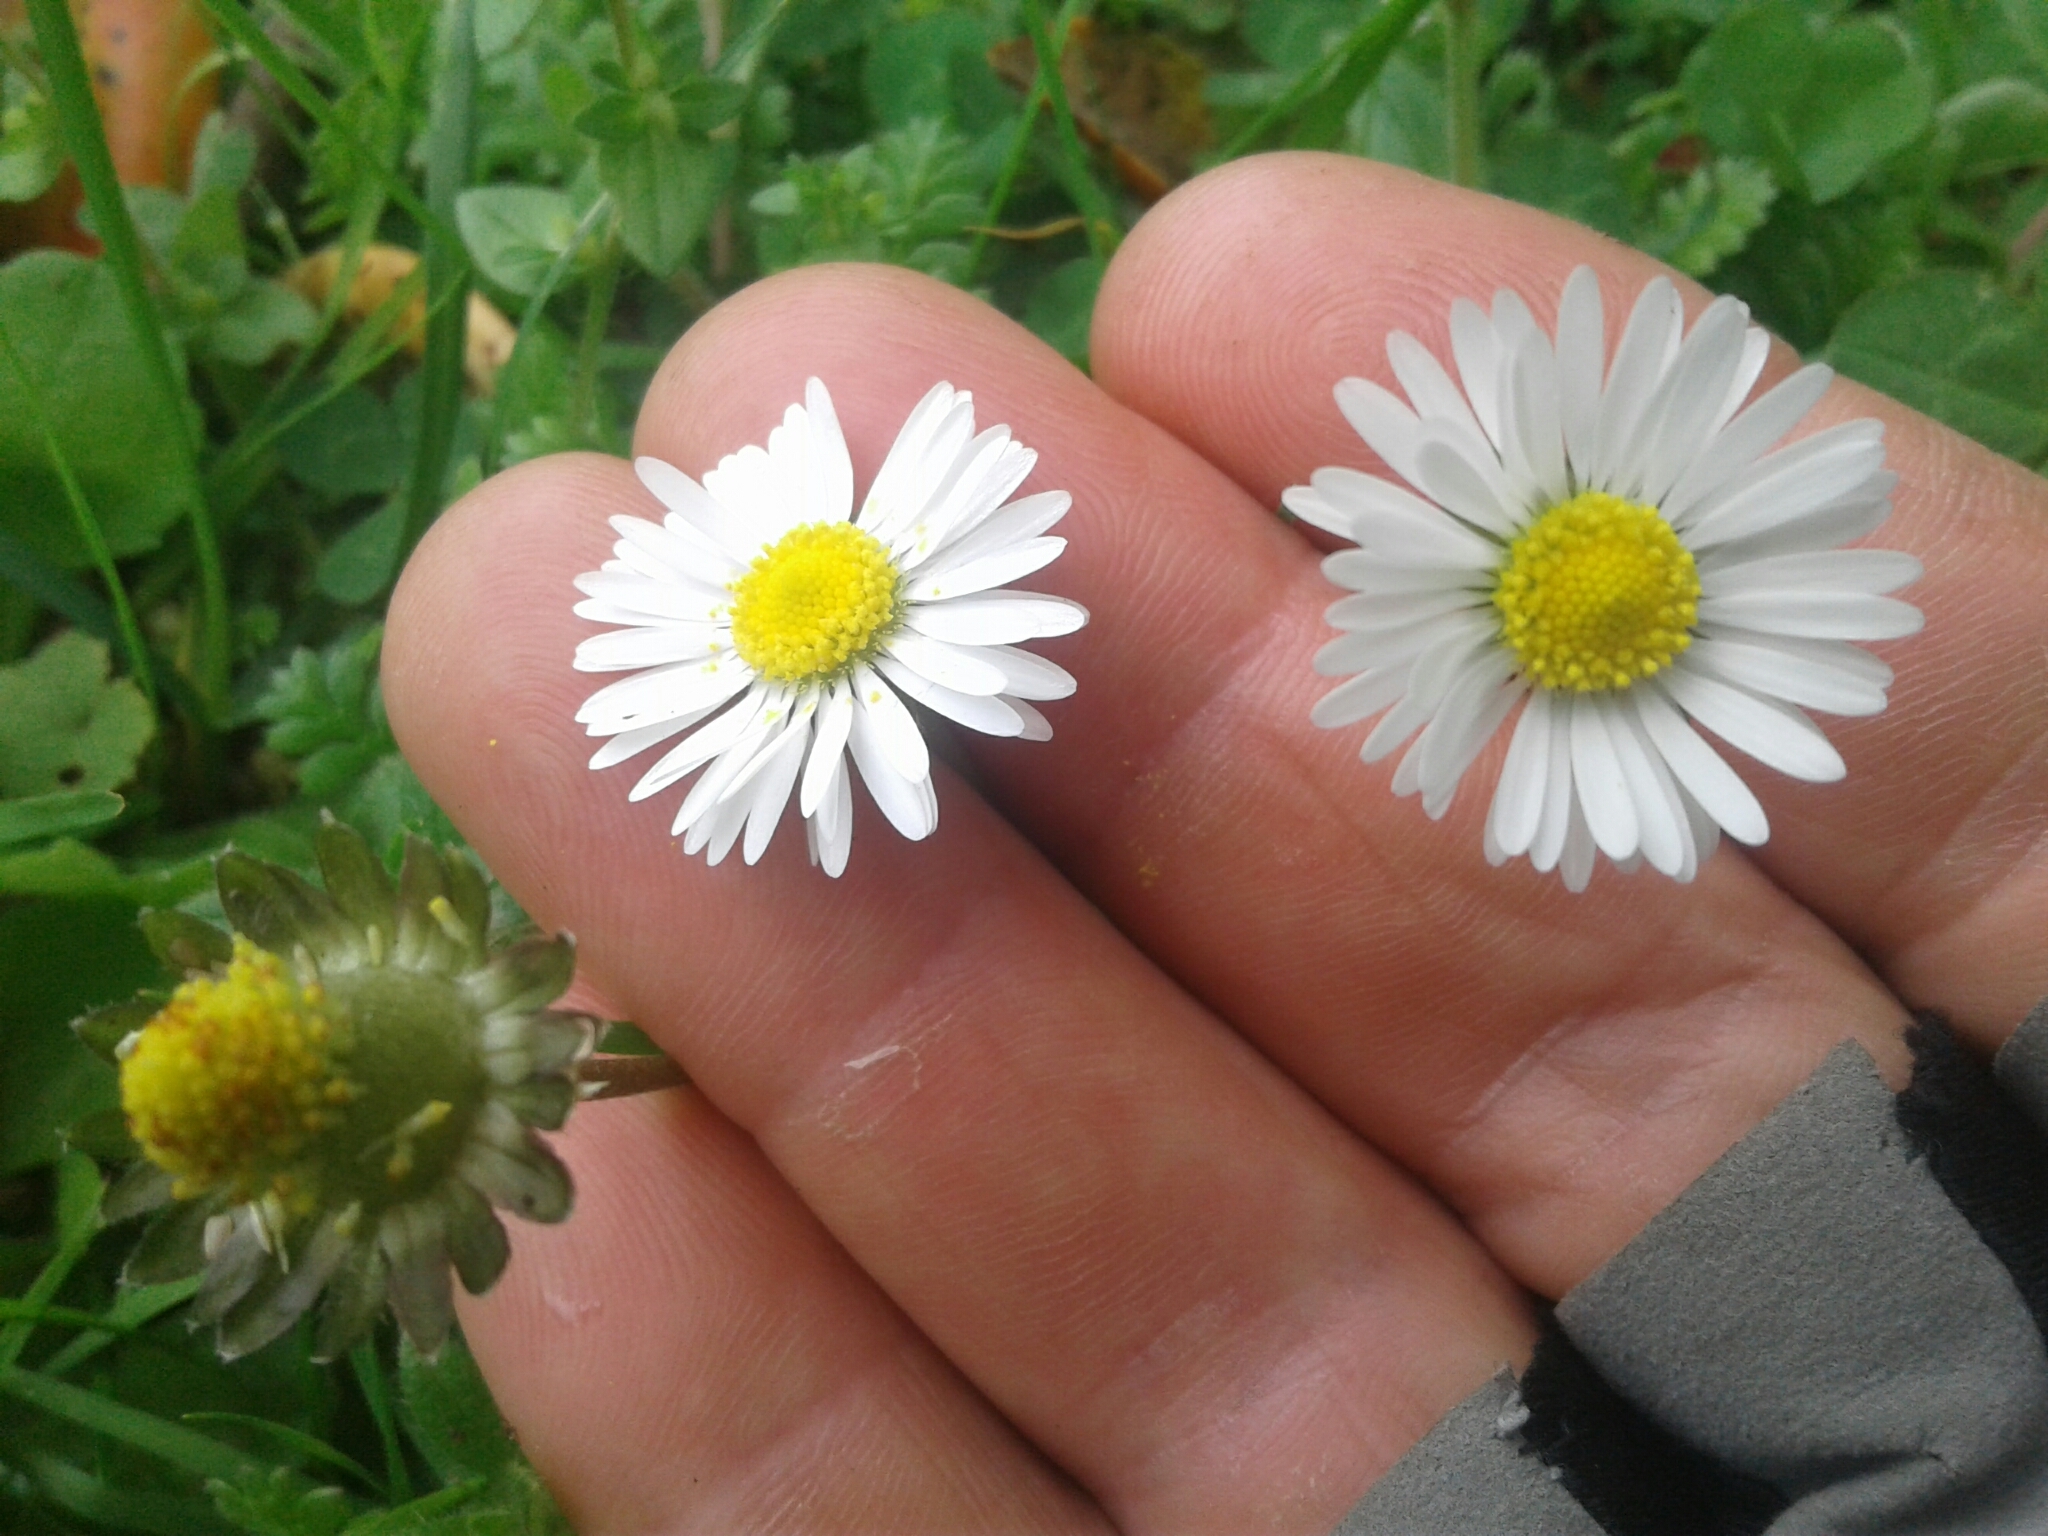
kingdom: Plantae
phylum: Tracheophyta
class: Magnoliopsida
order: Asterales
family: Asteraceae
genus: Bellis
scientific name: Bellis perennis
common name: Lawndaisy
